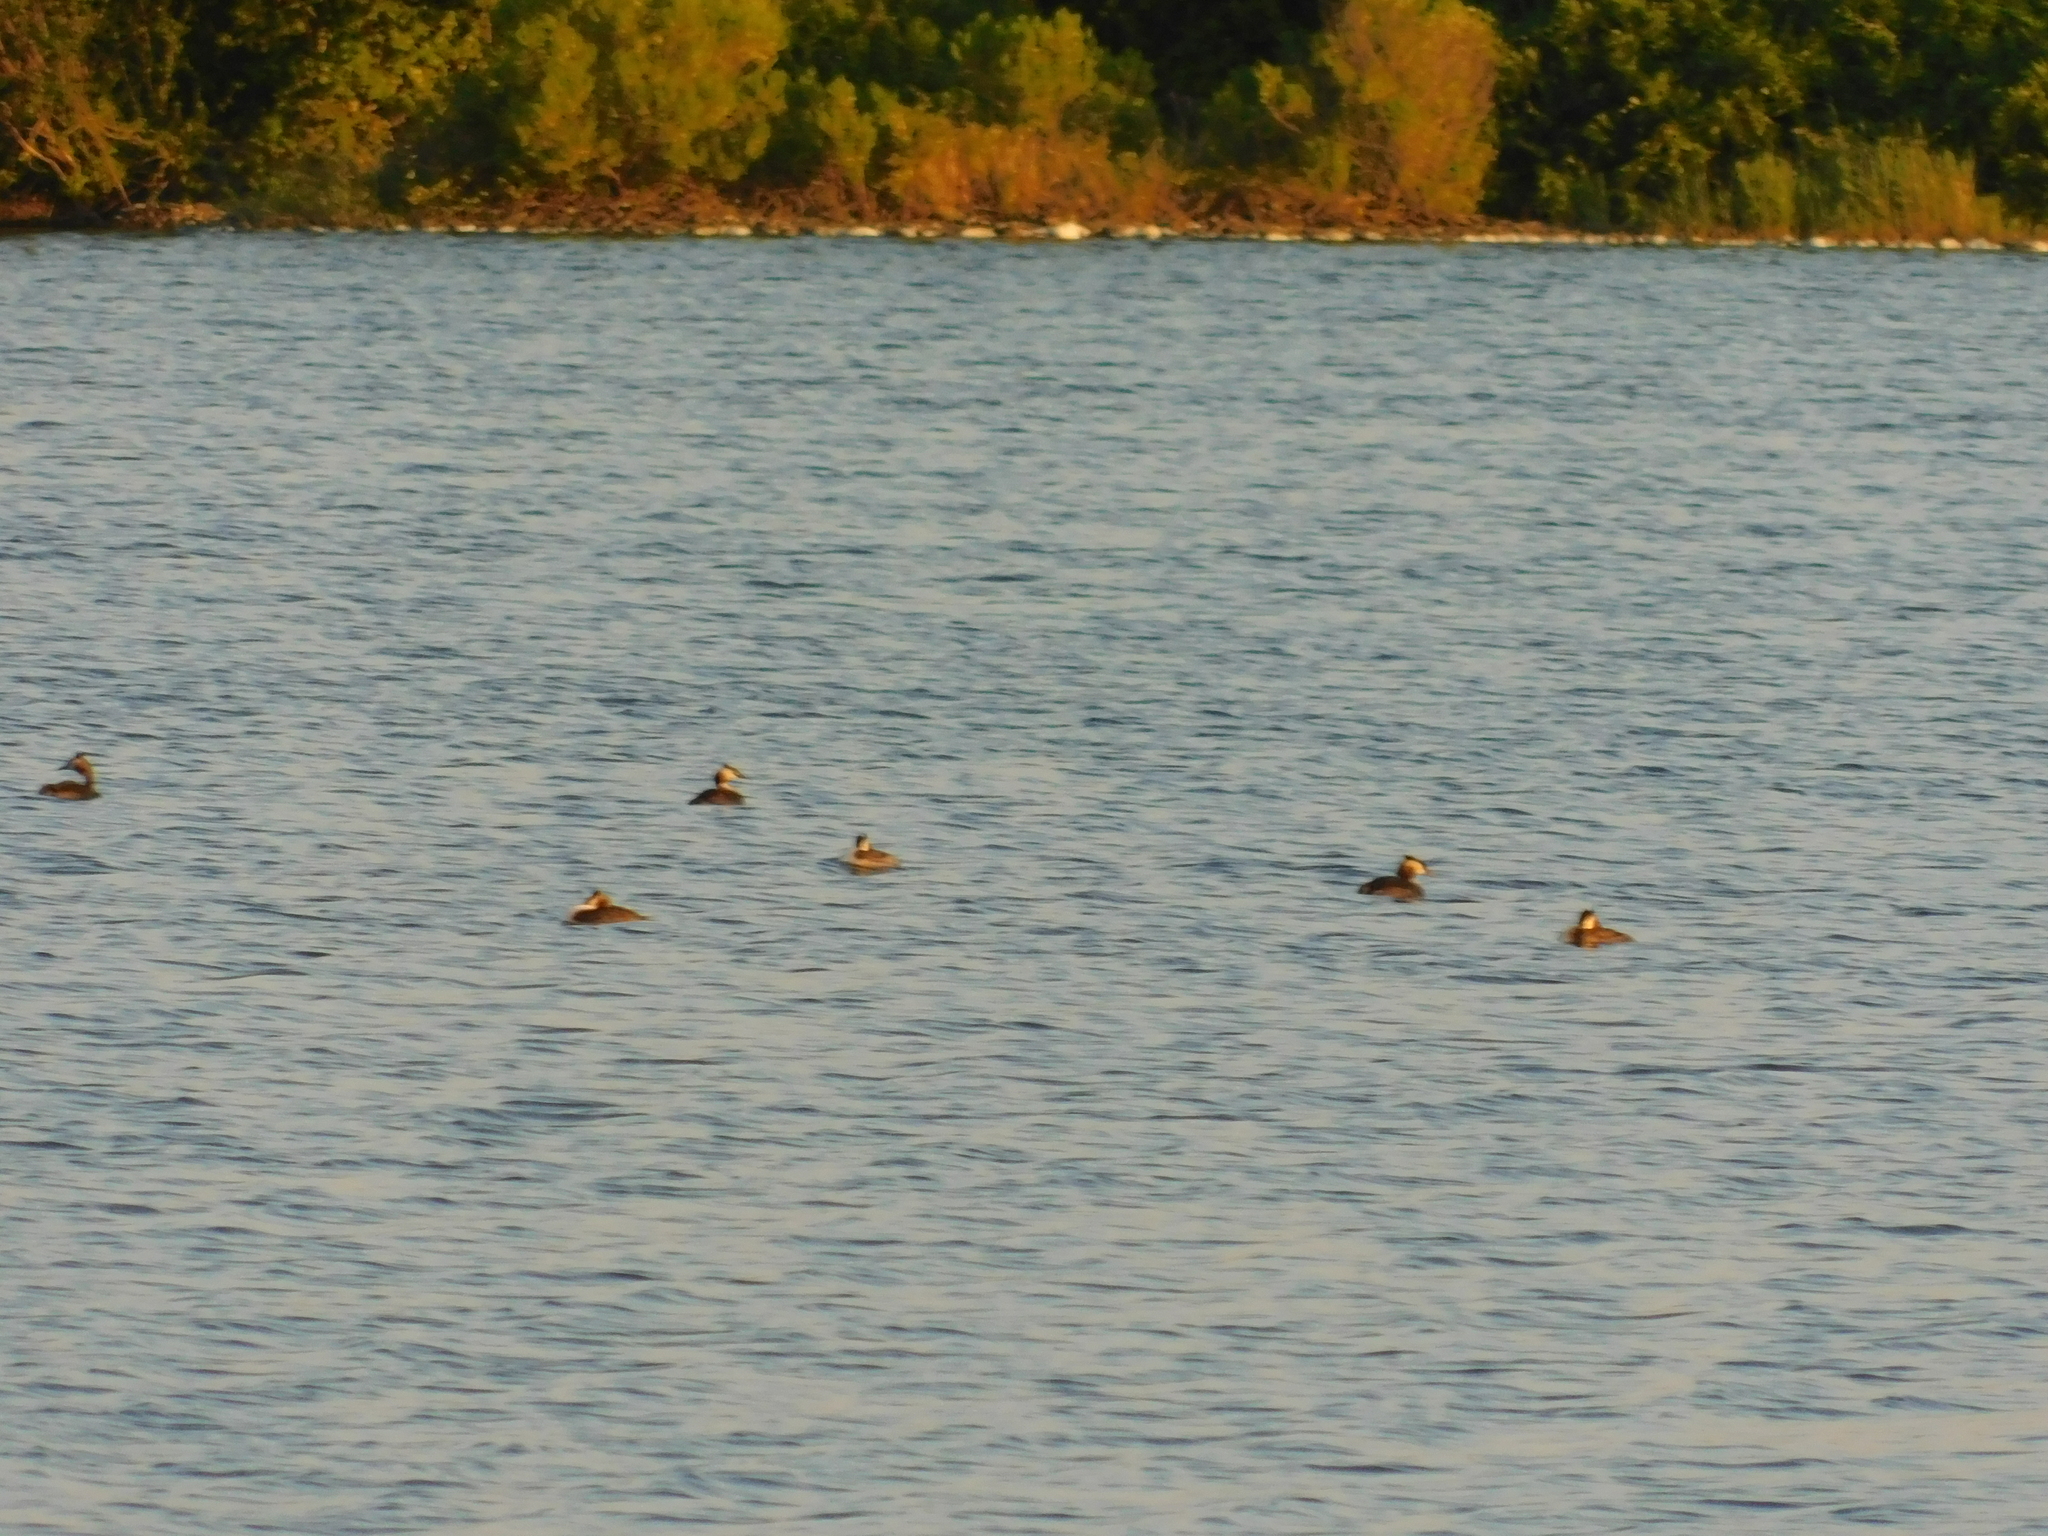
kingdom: Animalia
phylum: Chordata
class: Aves
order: Podicipediformes
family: Podicipedidae
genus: Podiceps
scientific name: Podiceps cristatus
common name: Great crested grebe
